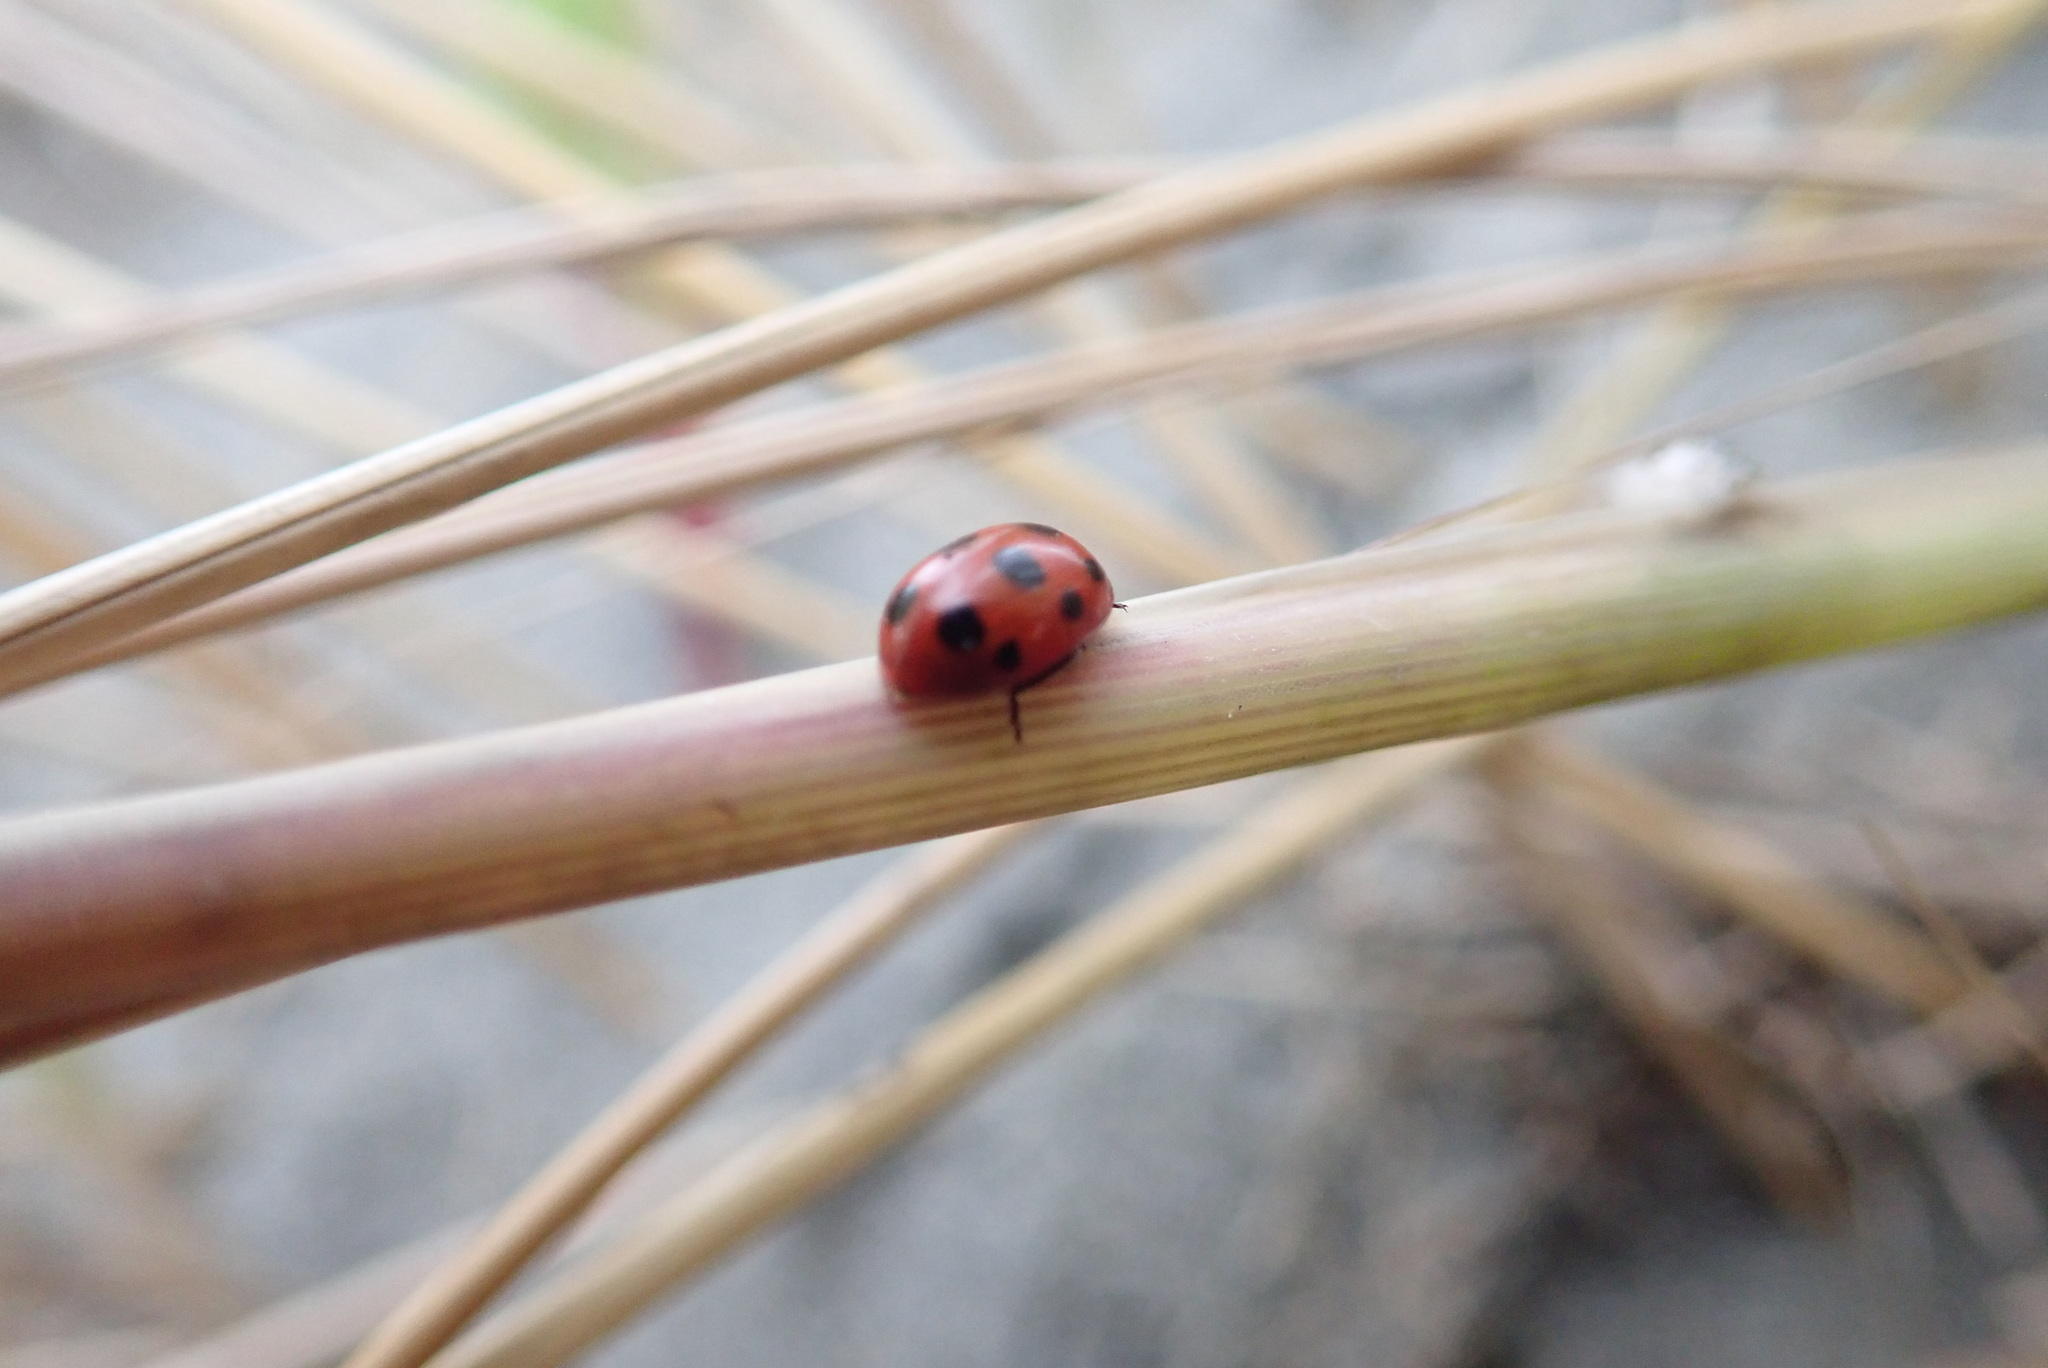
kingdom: Animalia
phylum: Arthropoda
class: Insecta
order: Coleoptera
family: Coccinellidae
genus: Coccinella
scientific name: Coccinella undecimpunctata
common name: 11-spot ladybird
